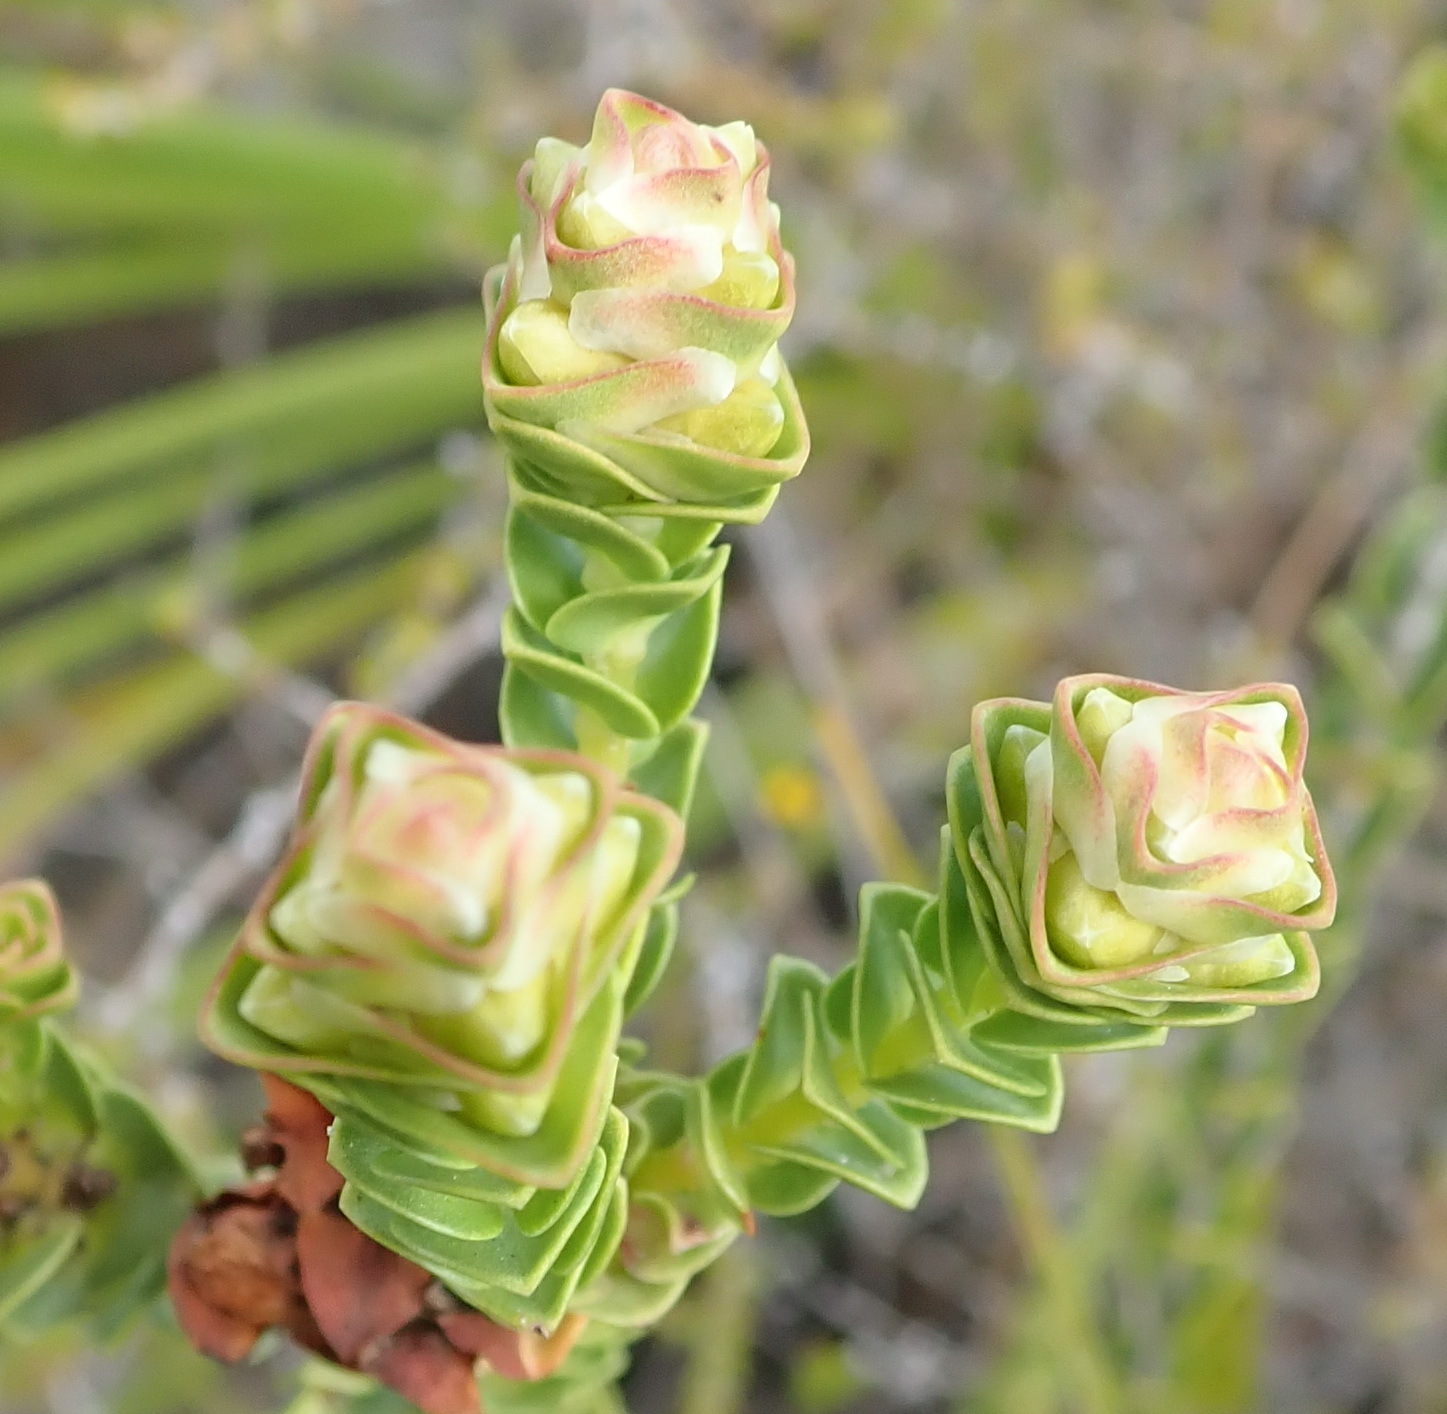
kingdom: Plantae
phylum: Tracheophyta
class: Magnoliopsida
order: Myrtales
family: Penaeaceae
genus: Penaea
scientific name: Penaea cneorum
